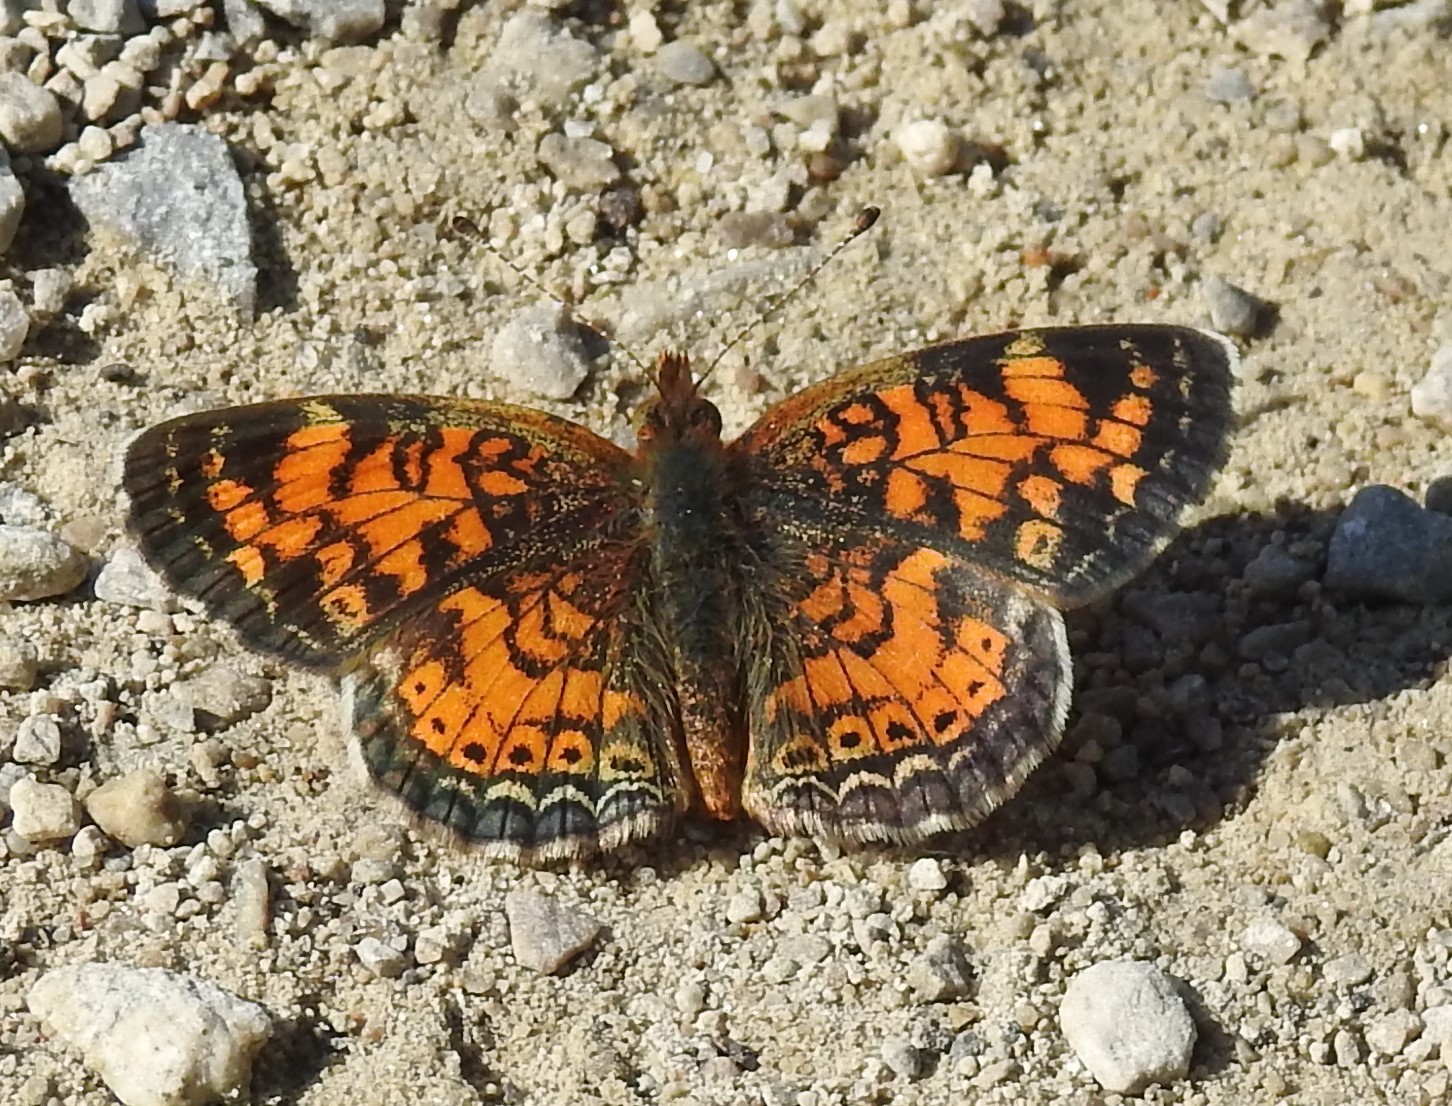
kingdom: Animalia
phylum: Arthropoda
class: Insecta
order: Lepidoptera
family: Nymphalidae
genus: Phyciodes
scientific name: Phyciodes tharos
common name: Pearl crescent
